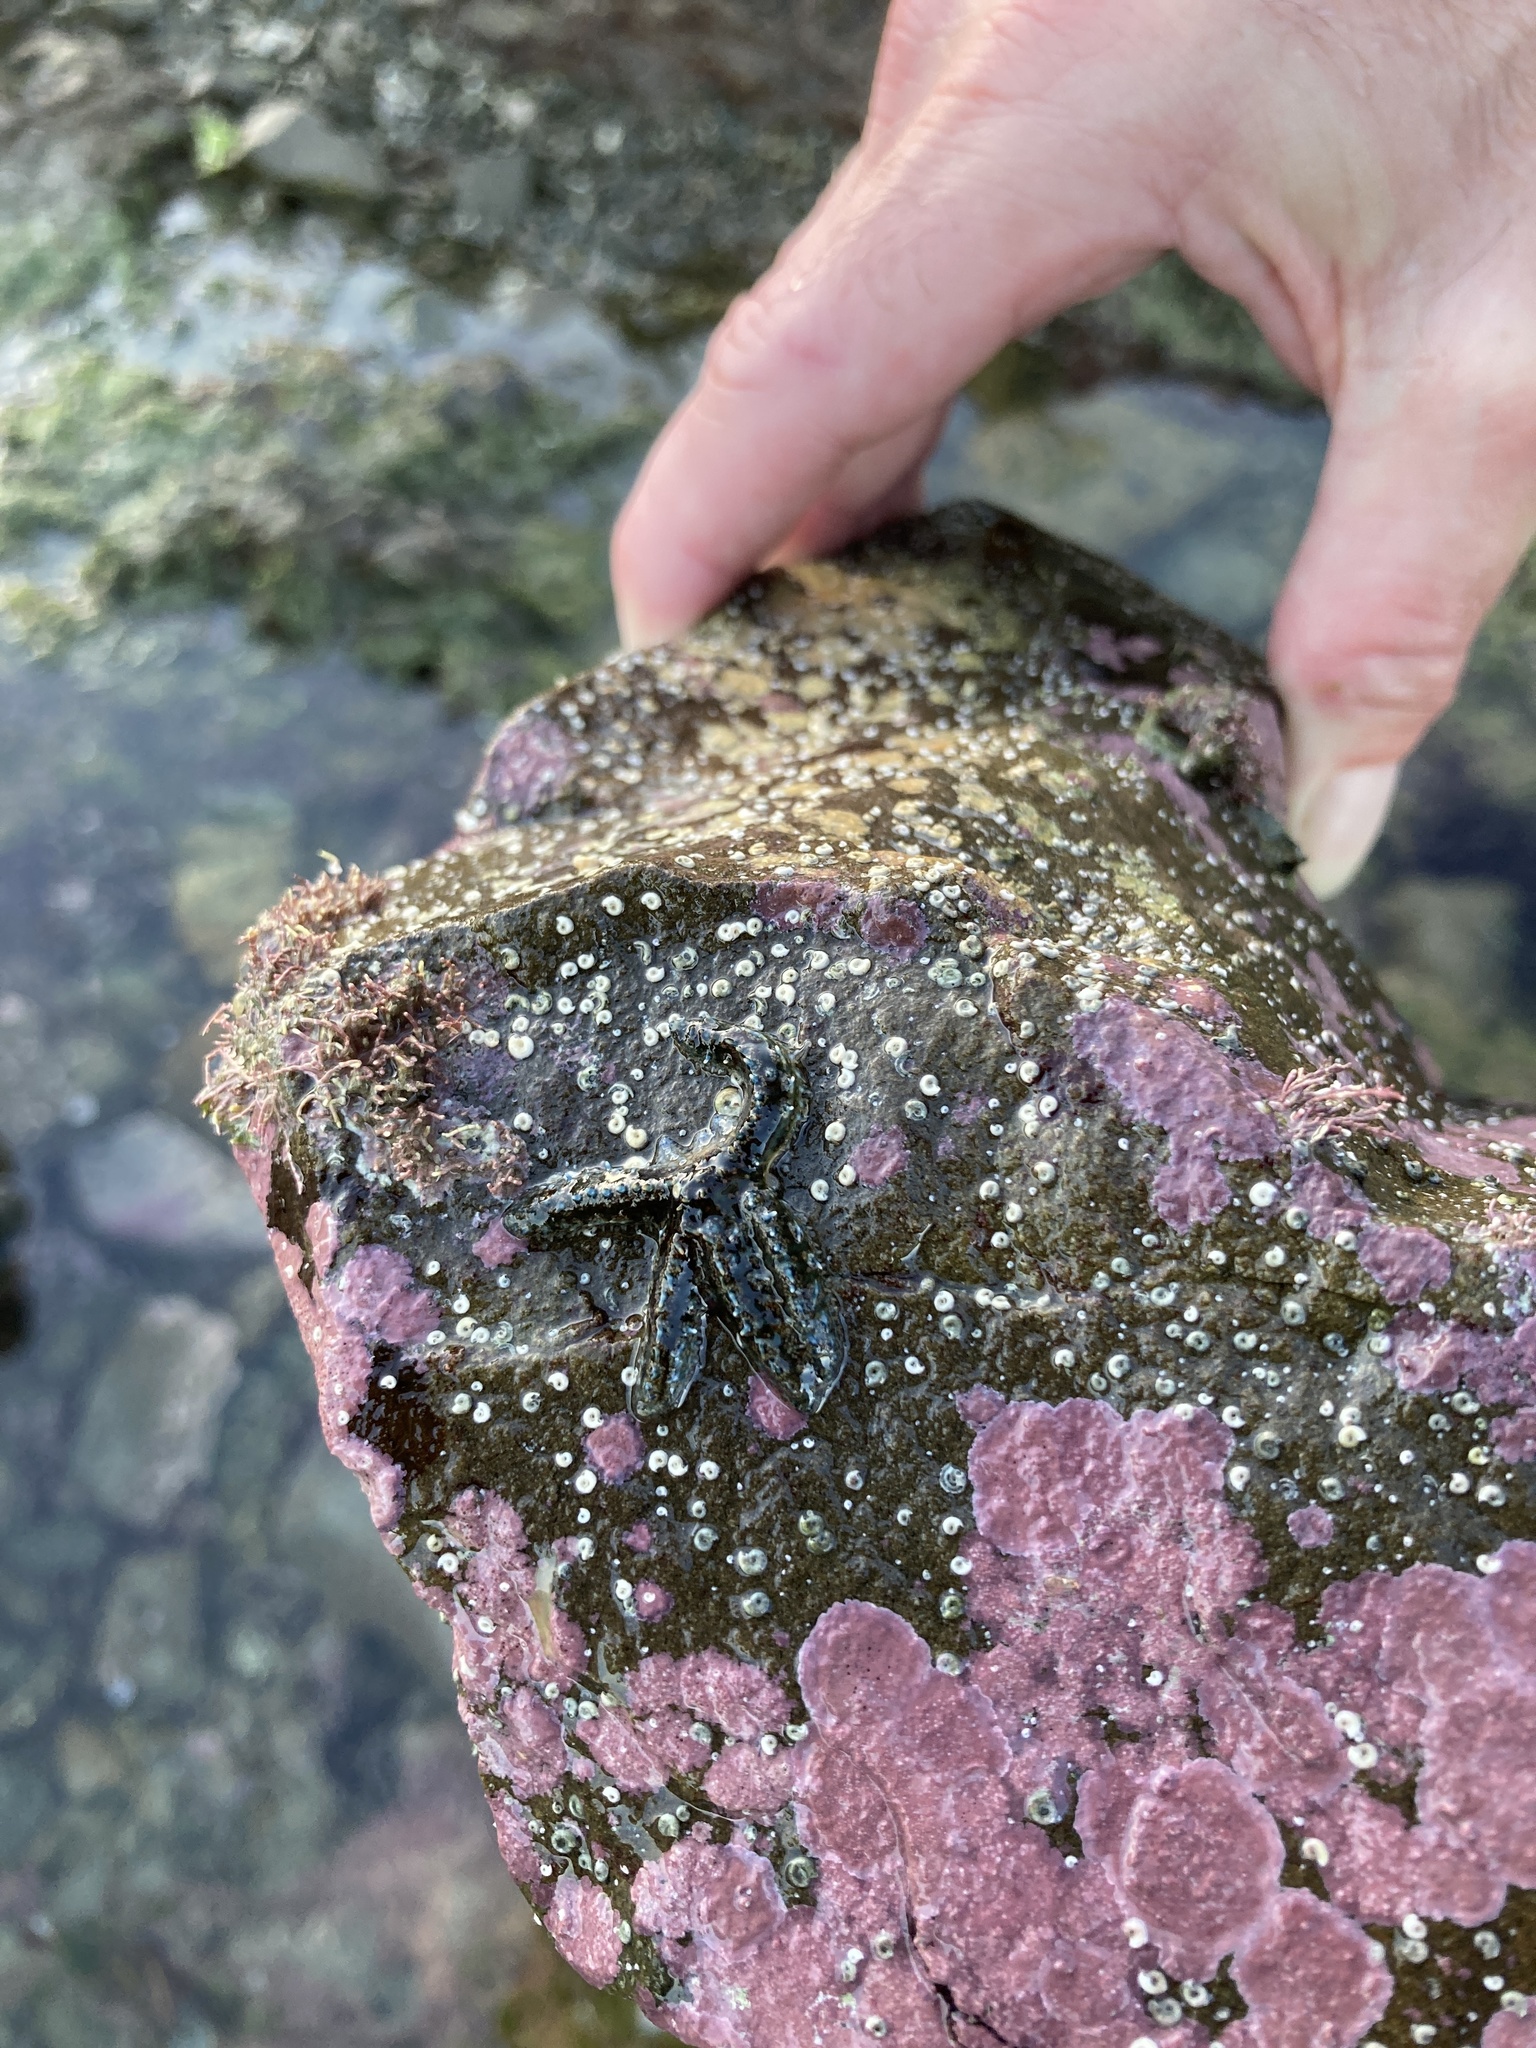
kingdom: Animalia
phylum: Echinodermata
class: Asteroidea
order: Forcipulatida
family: Asteriidae
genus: Coscinasterias
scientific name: Coscinasterias muricata
